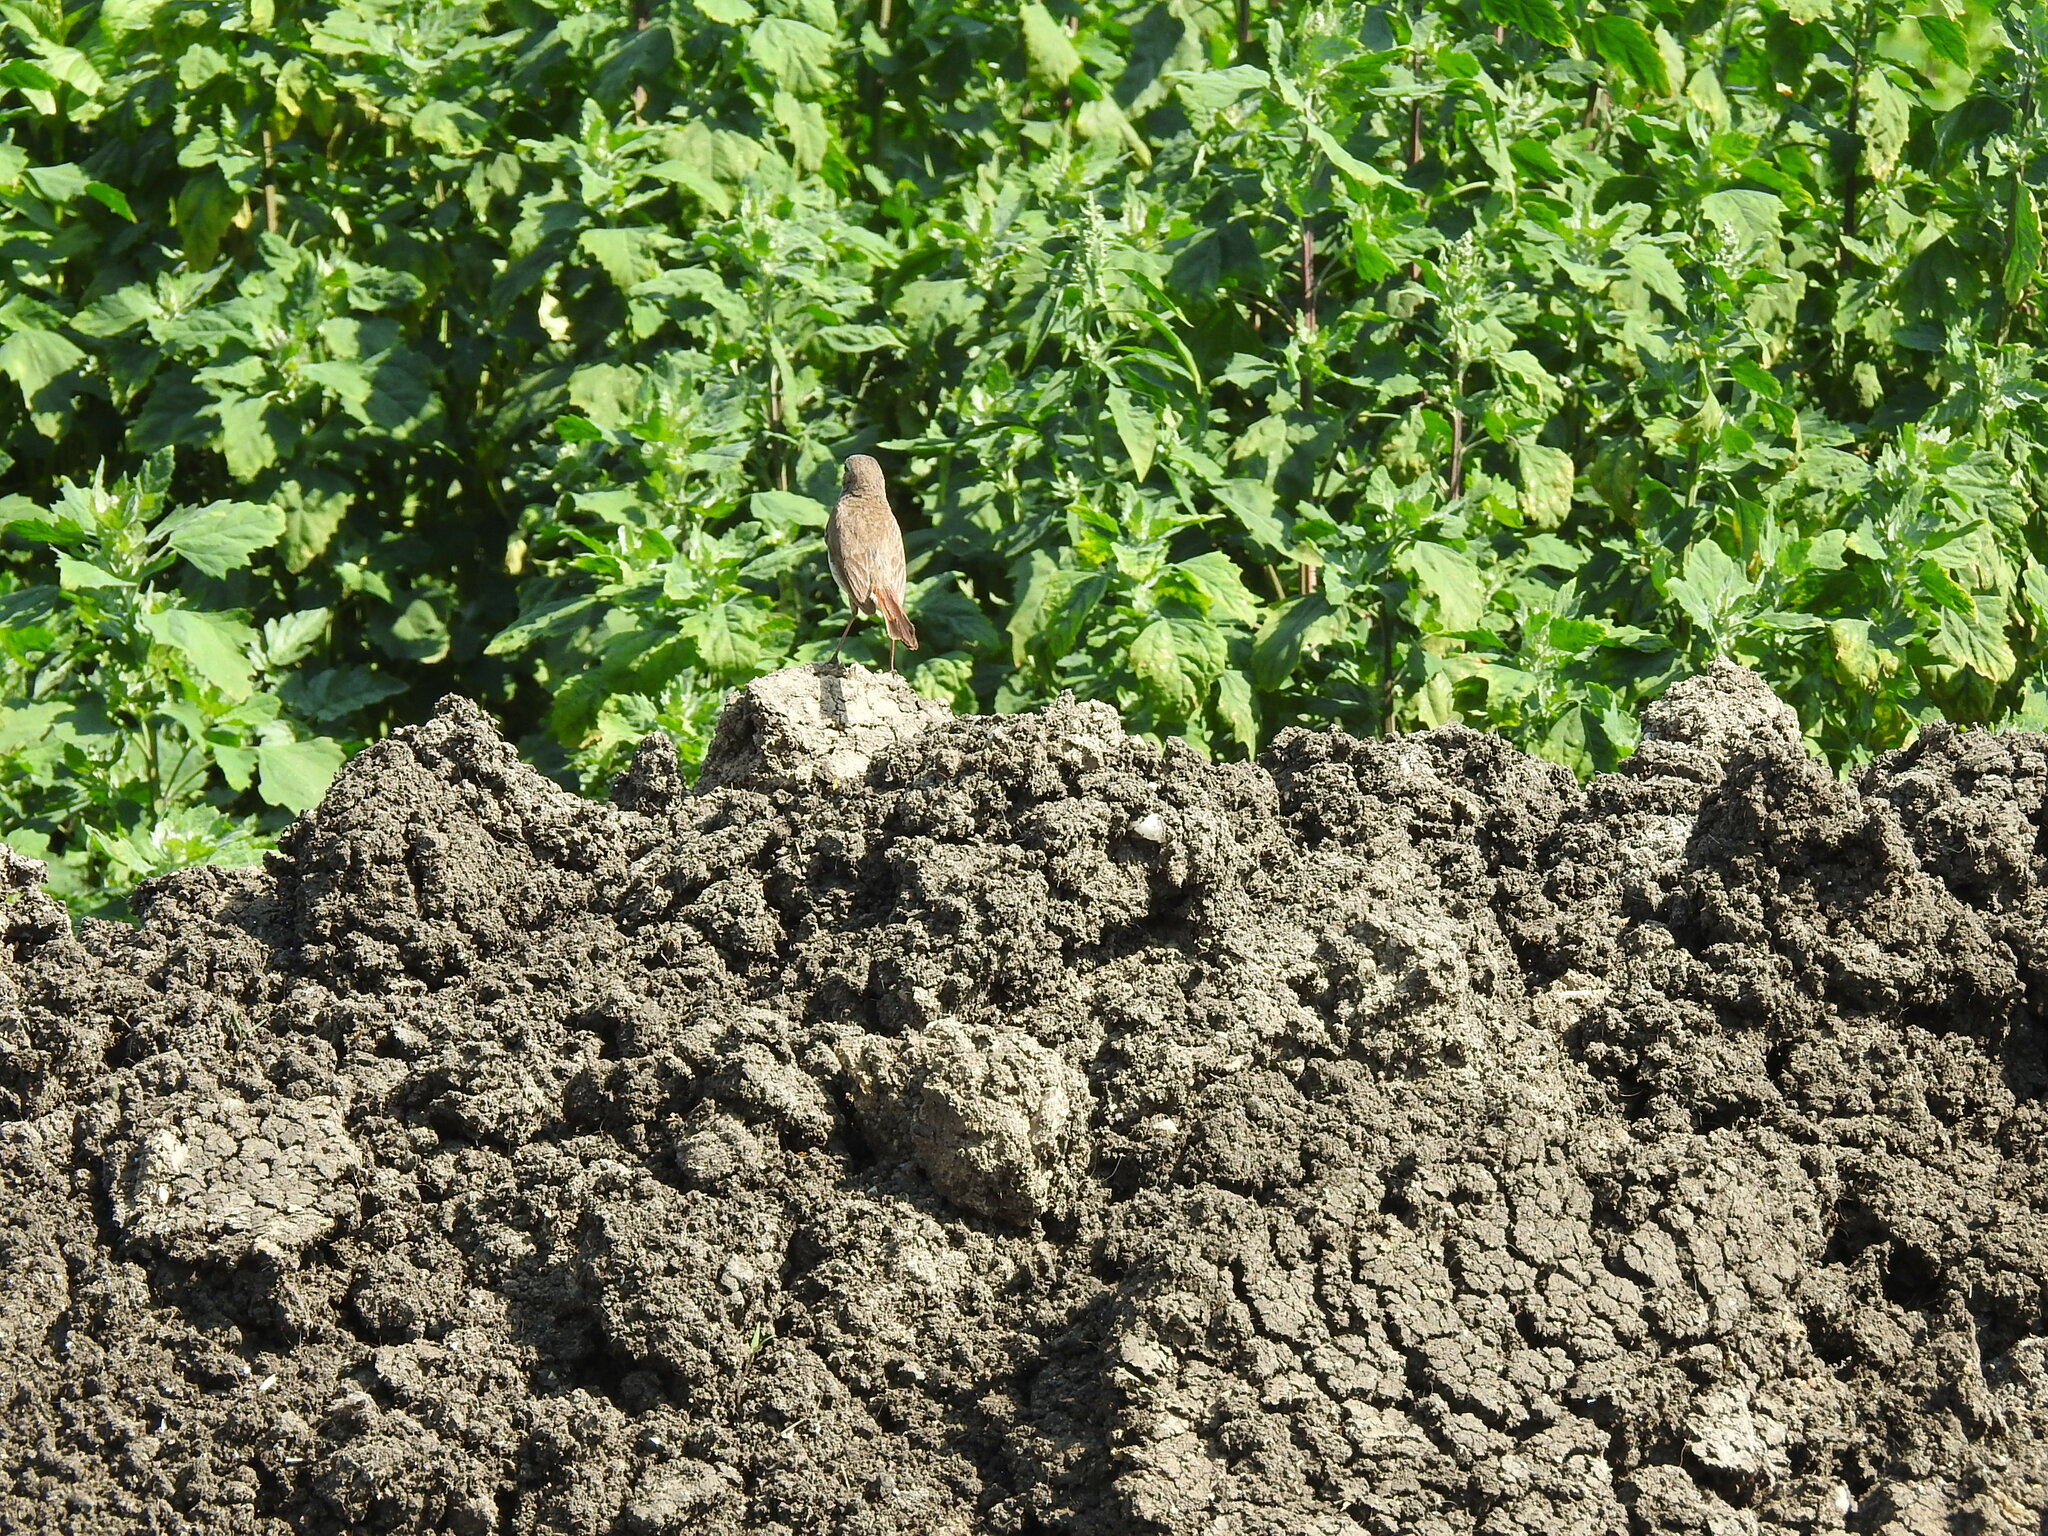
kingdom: Animalia
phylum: Chordata
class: Aves
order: Passeriformes
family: Muscicapidae
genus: Luscinia
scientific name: Luscinia svecica
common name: Bluethroat
